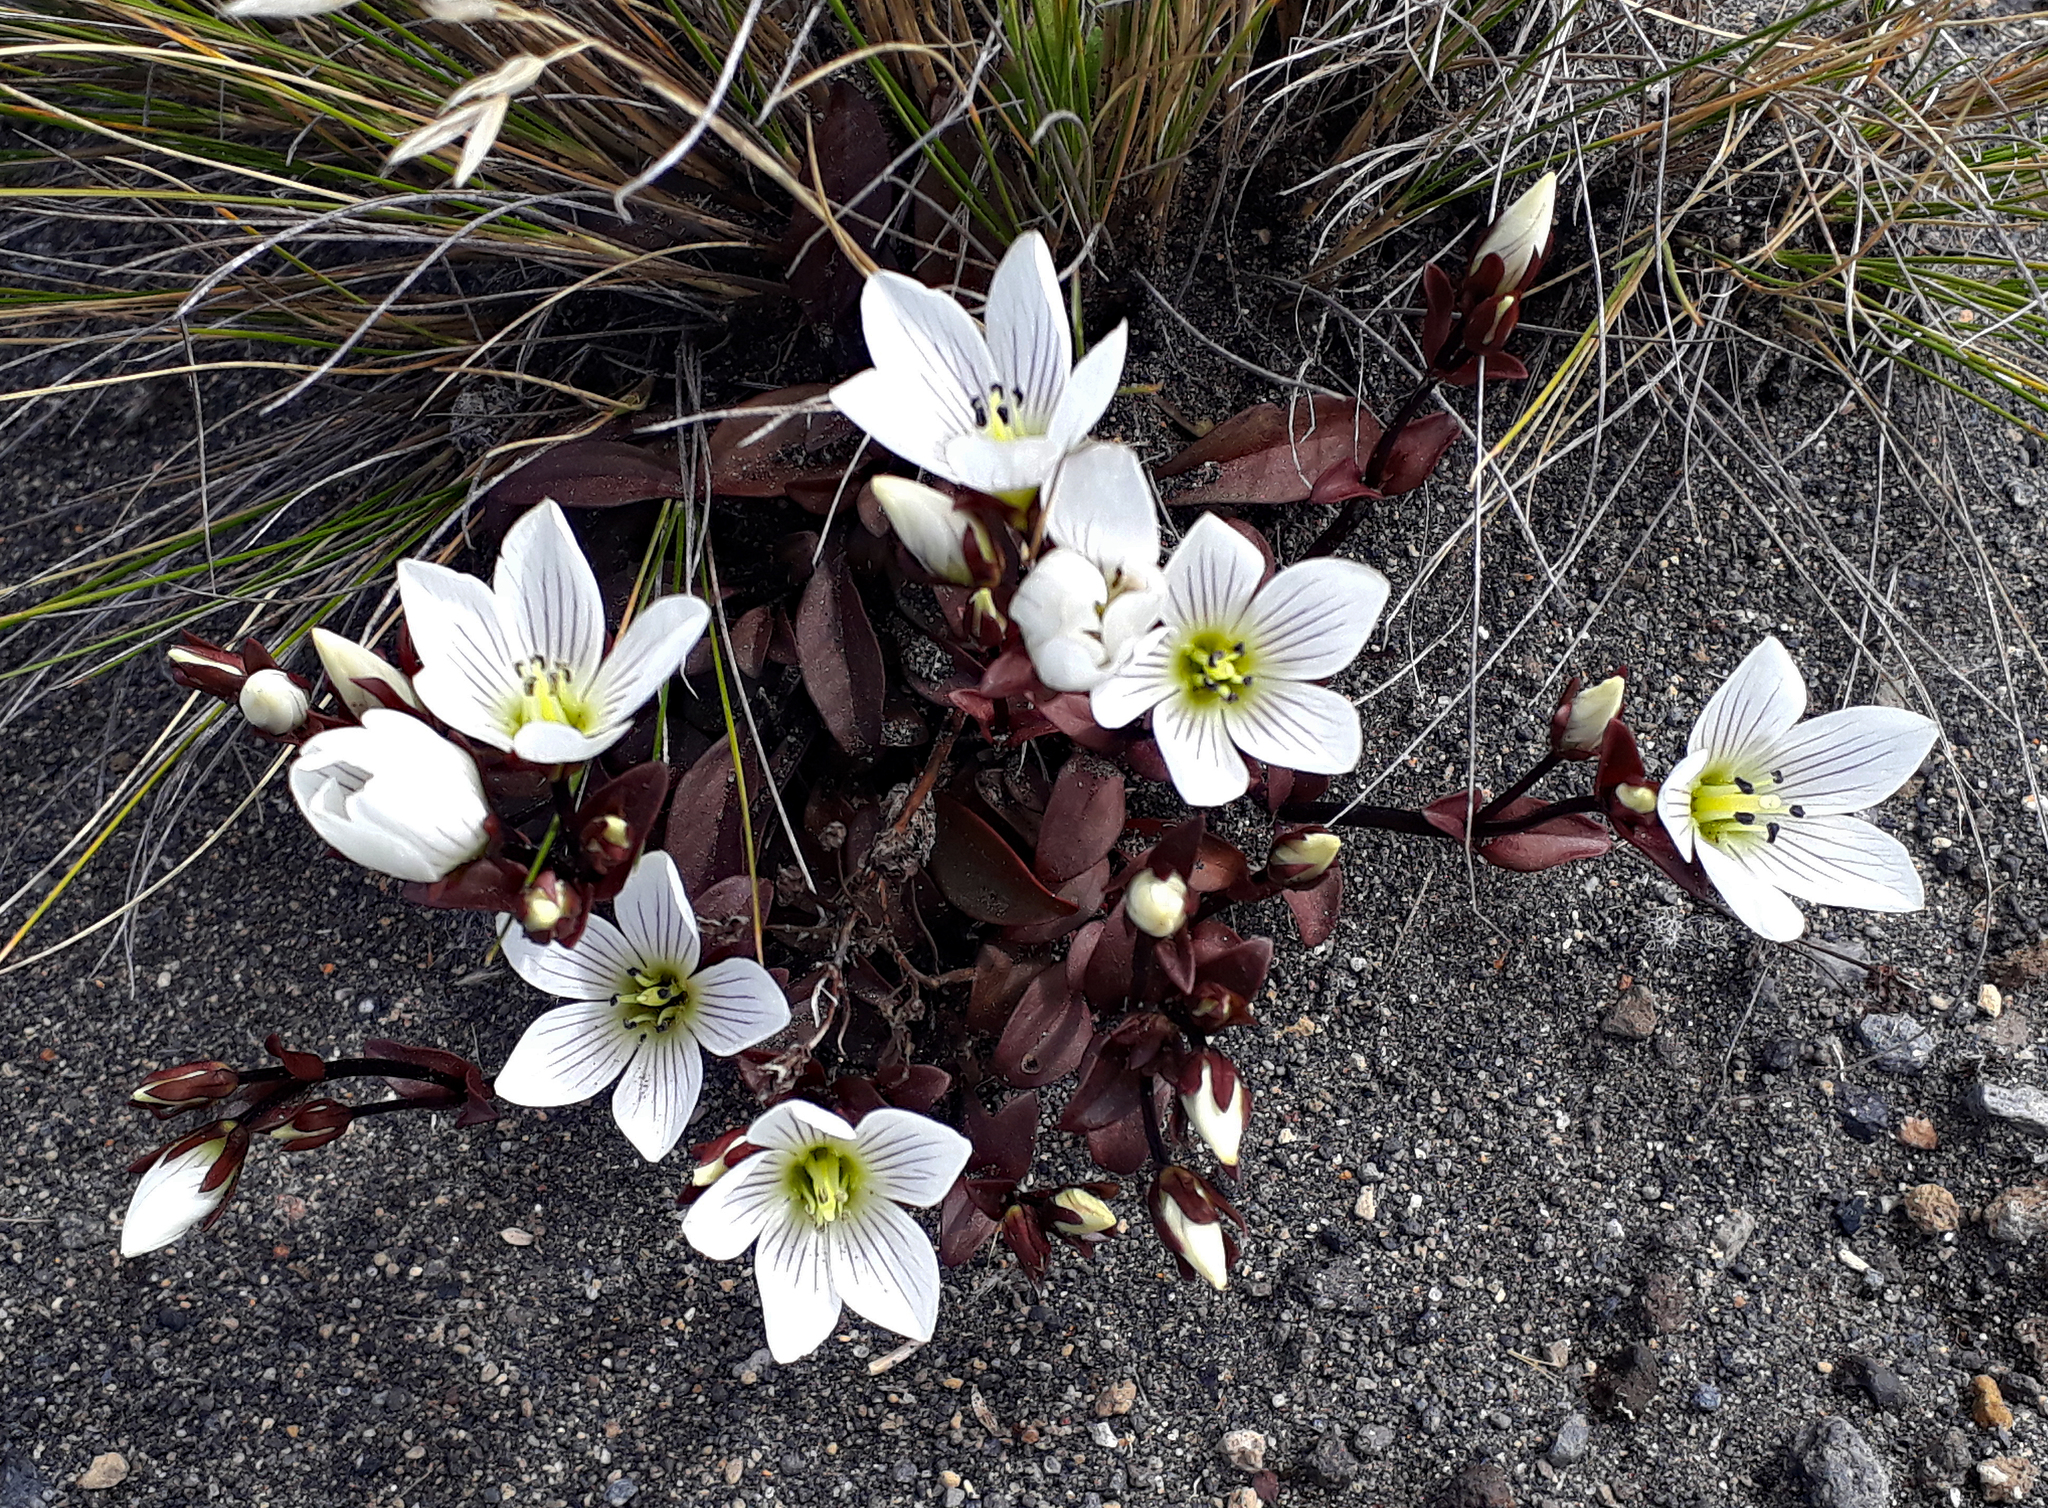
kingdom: Plantae
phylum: Tracheophyta
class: Magnoliopsida
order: Gentianales
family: Gentianaceae
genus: Gentianella
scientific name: Gentianella bellidifolia
